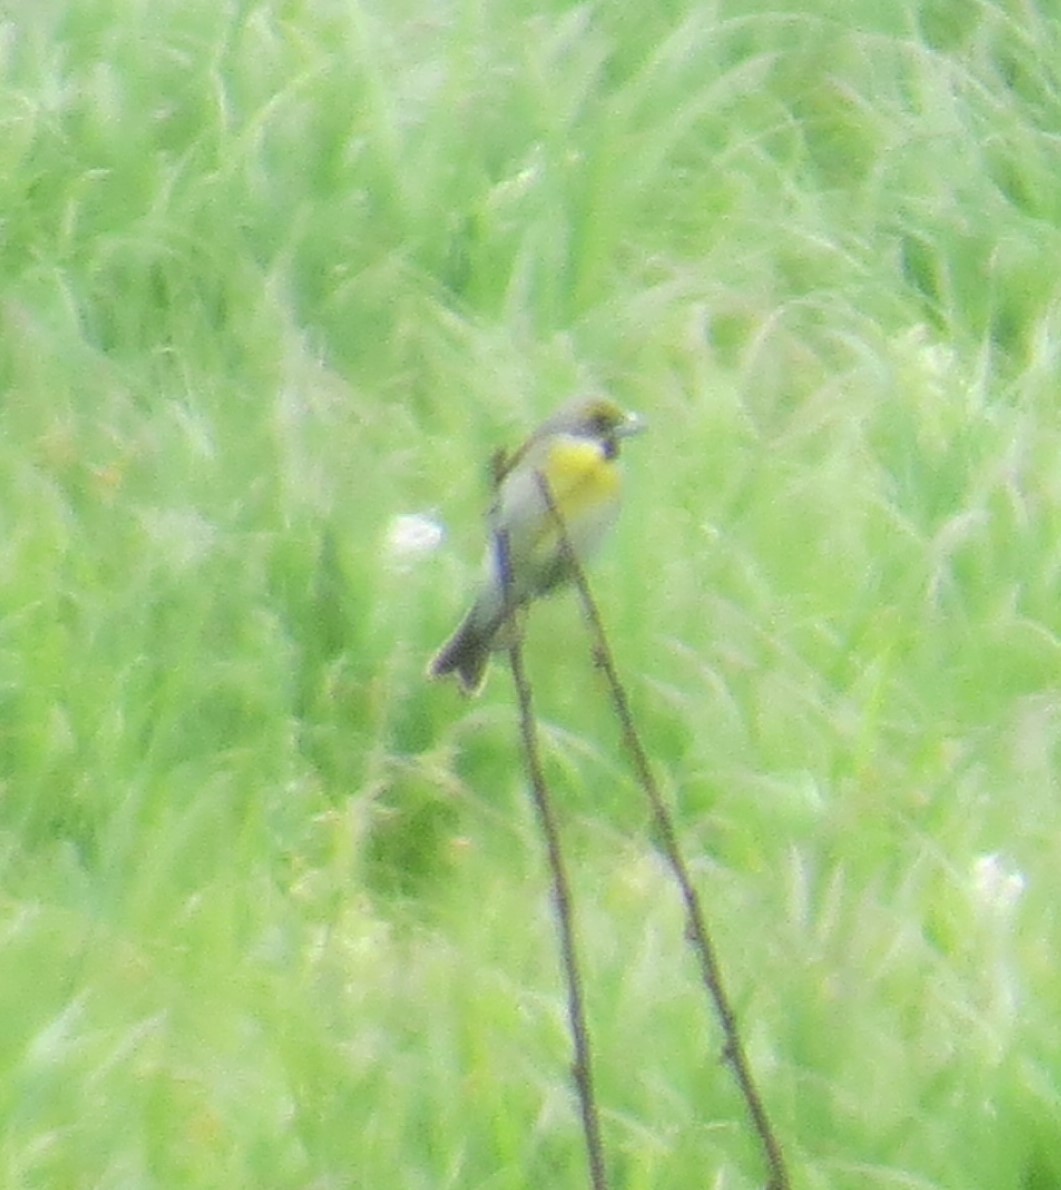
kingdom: Animalia
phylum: Chordata
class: Aves
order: Passeriformes
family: Cardinalidae
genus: Spiza
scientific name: Spiza americana
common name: Dickcissel
